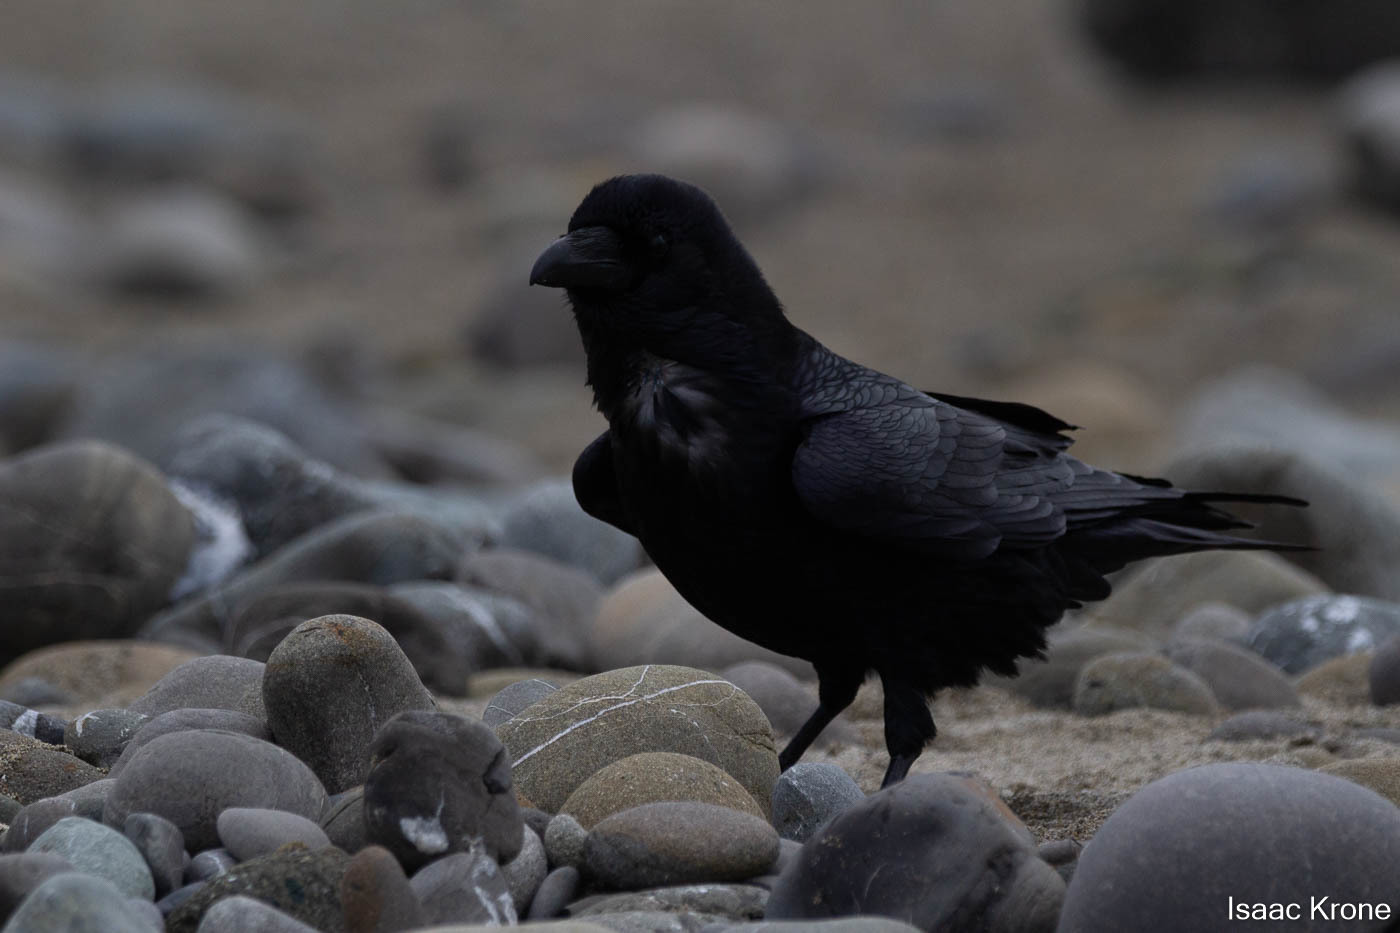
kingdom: Animalia
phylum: Chordata
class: Aves
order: Passeriformes
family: Corvidae
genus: Corvus
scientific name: Corvus corax
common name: Common raven
